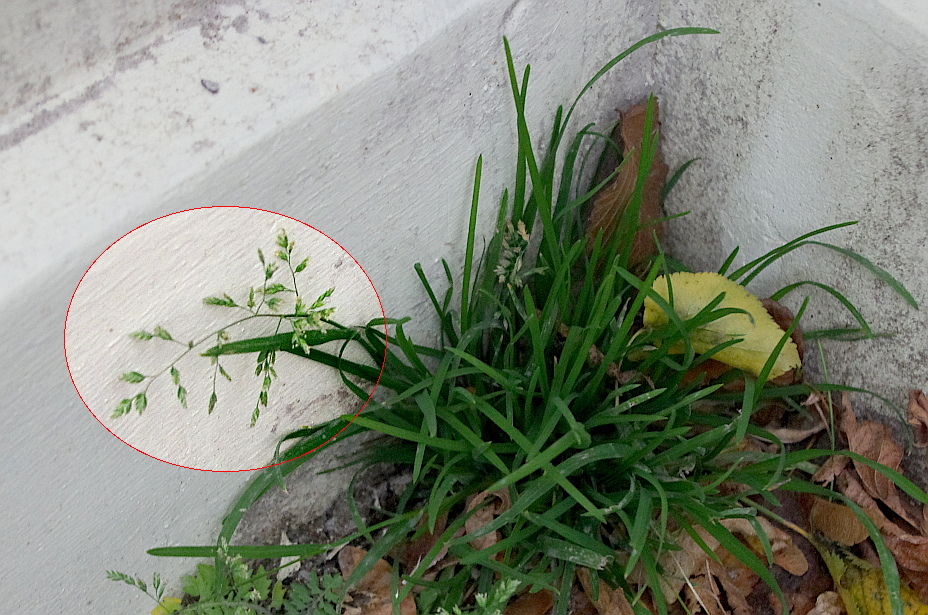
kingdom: Plantae
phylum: Tracheophyta
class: Liliopsida
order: Poales
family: Poaceae
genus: Poa
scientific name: Poa annua
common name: Annual bluegrass
